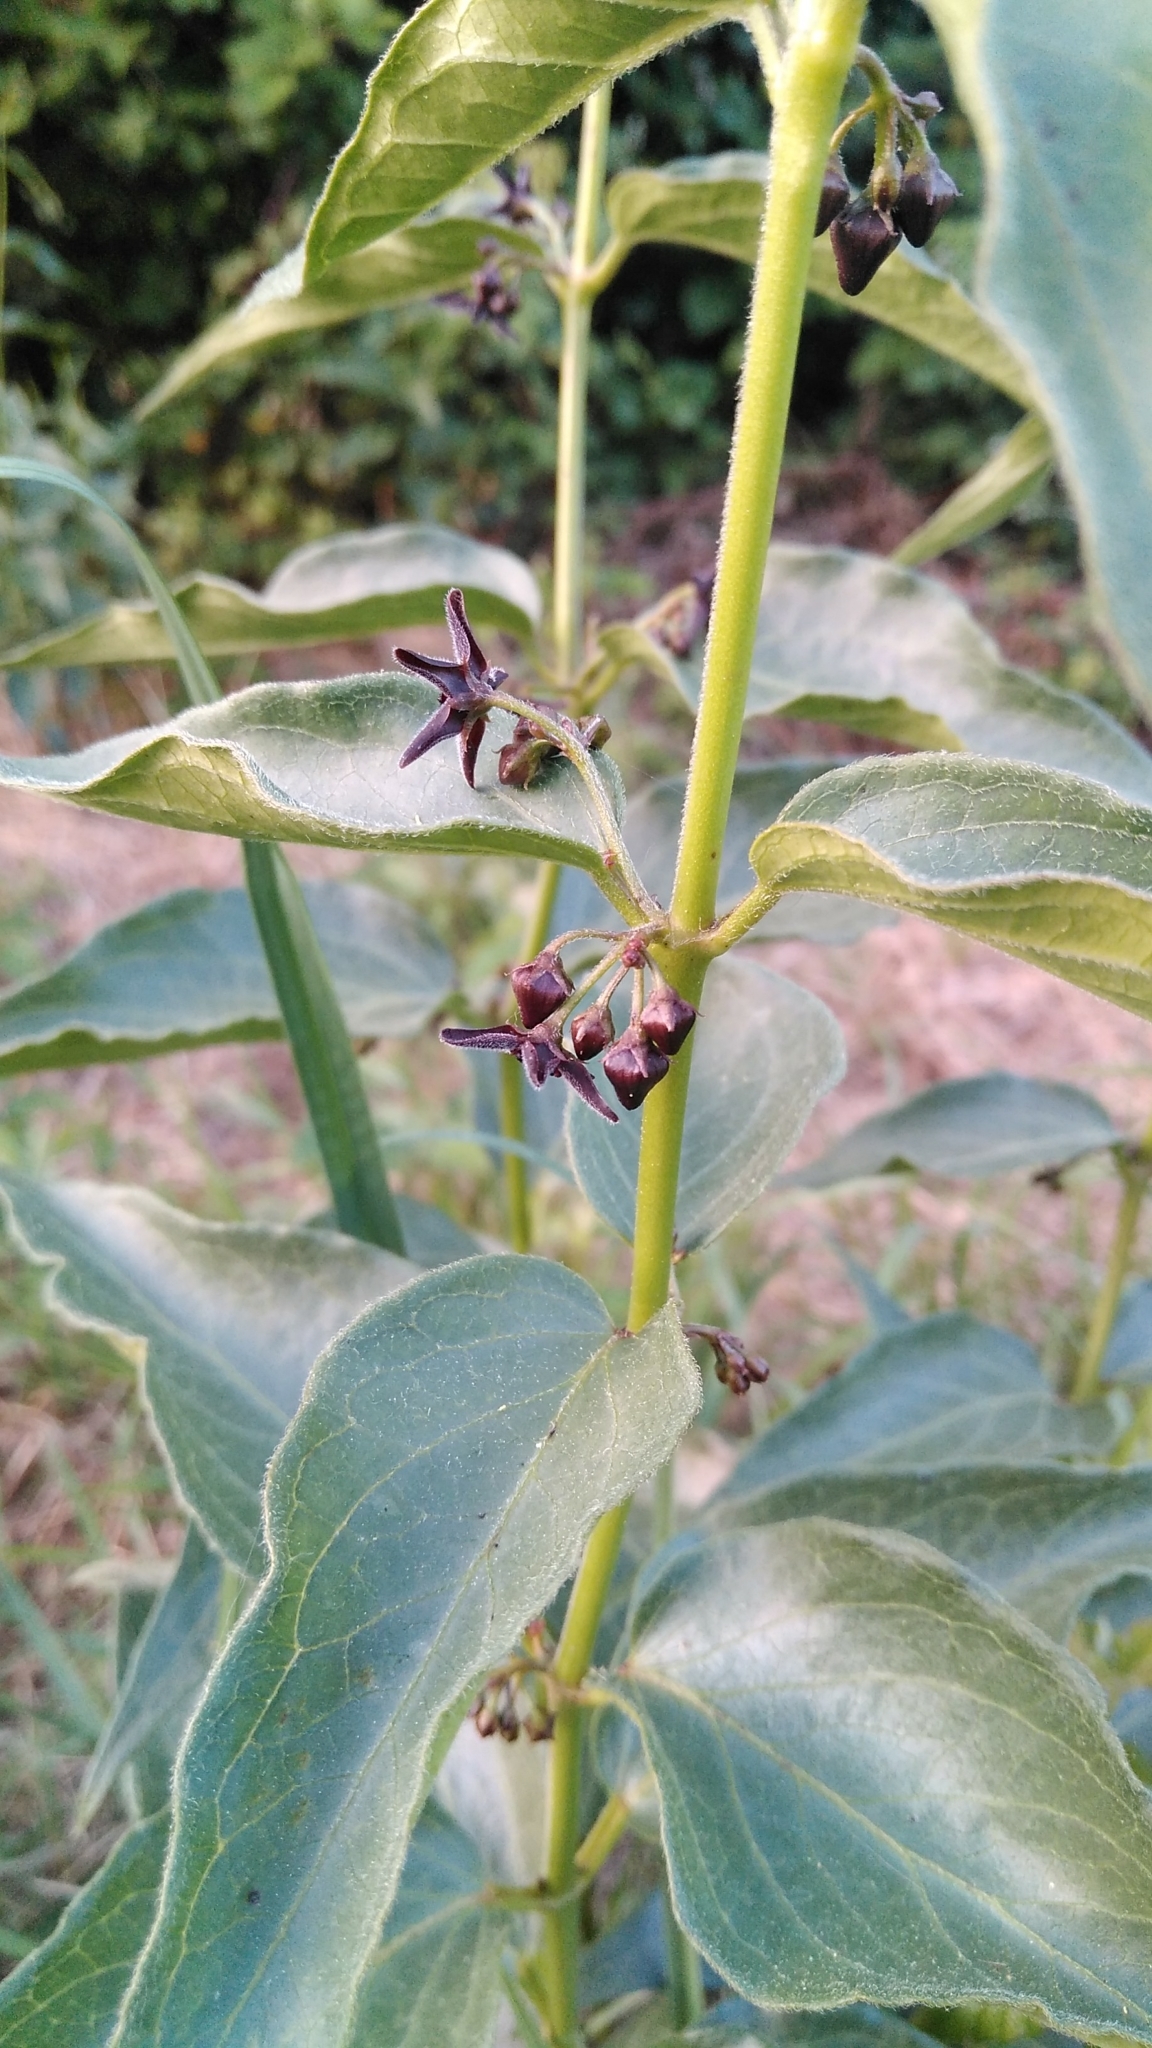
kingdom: Plantae
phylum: Tracheophyta
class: Magnoliopsida
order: Gentianales
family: Apocynaceae
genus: Vincetoxicum
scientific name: Vincetoxicum nigrum
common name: Black swallow-wort
